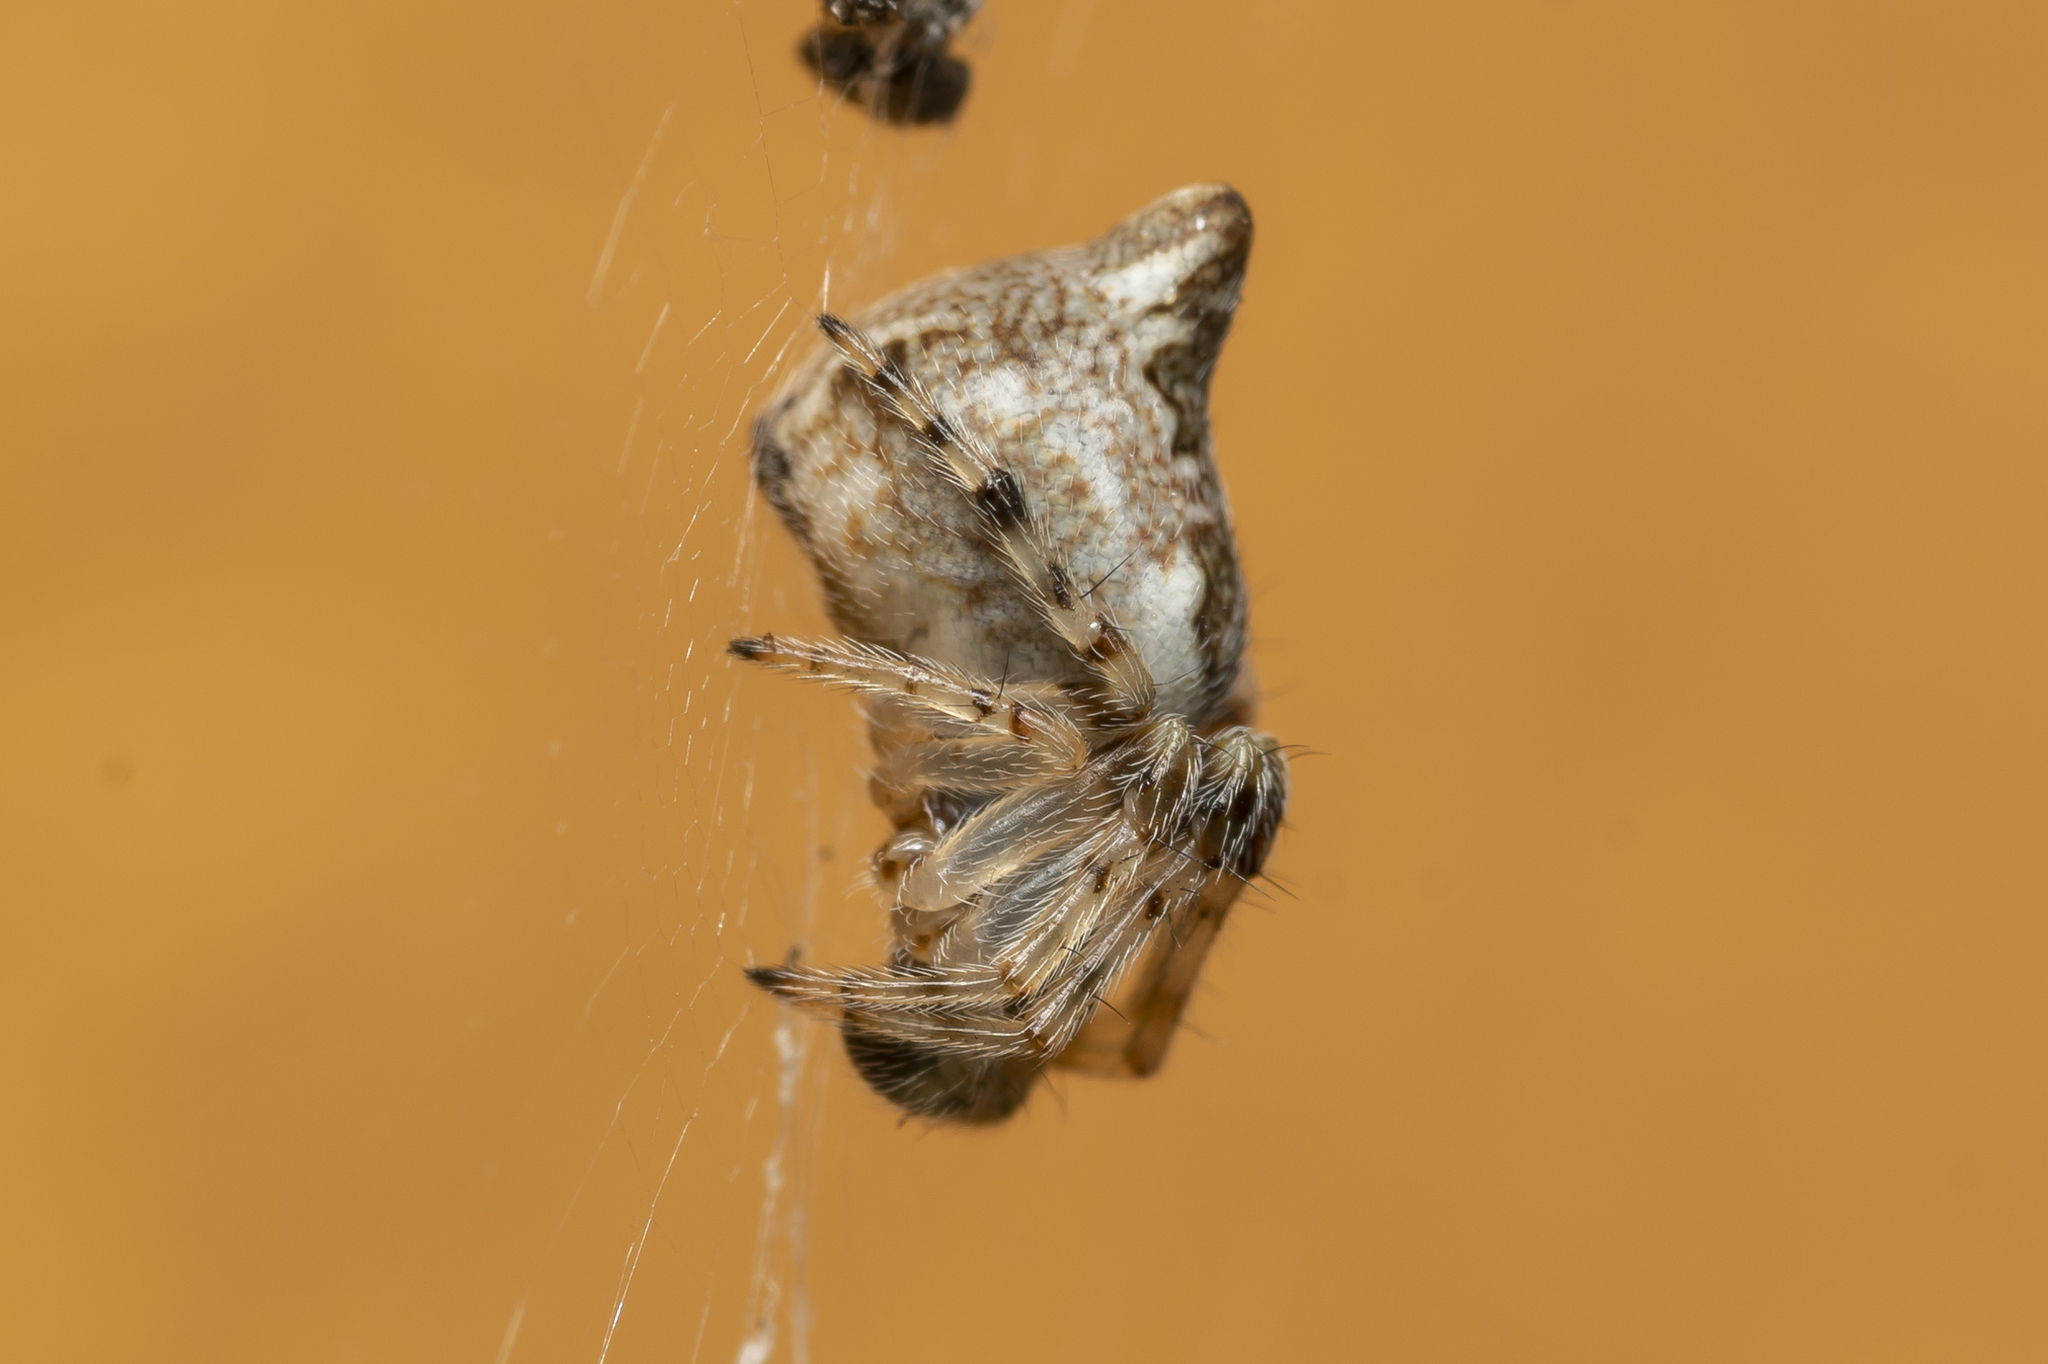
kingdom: Animalia
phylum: Arthropoda
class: Arachnida
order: Araneae
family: Araneidae
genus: Cyclosa
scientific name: Cyclosa conica
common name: Conical trashline orbweaver
